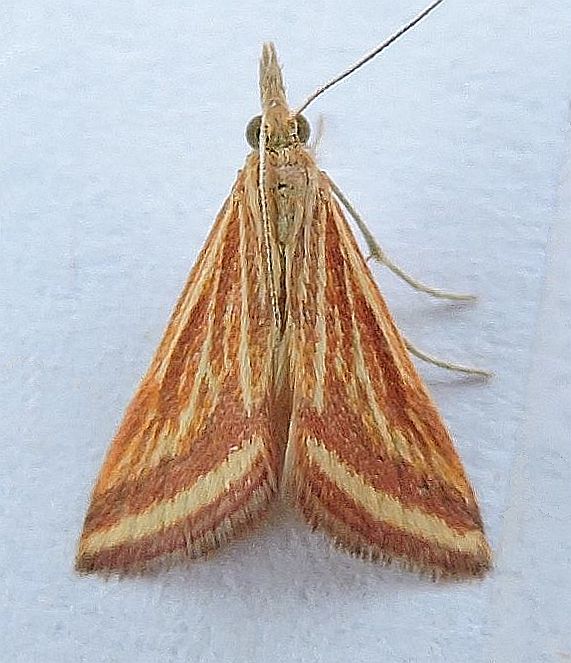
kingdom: Animalia
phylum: Arthropoda
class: Insecta
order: Lepidoptera
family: Crambidae
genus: Microtheoris
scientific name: Microtheoris ophionalis
